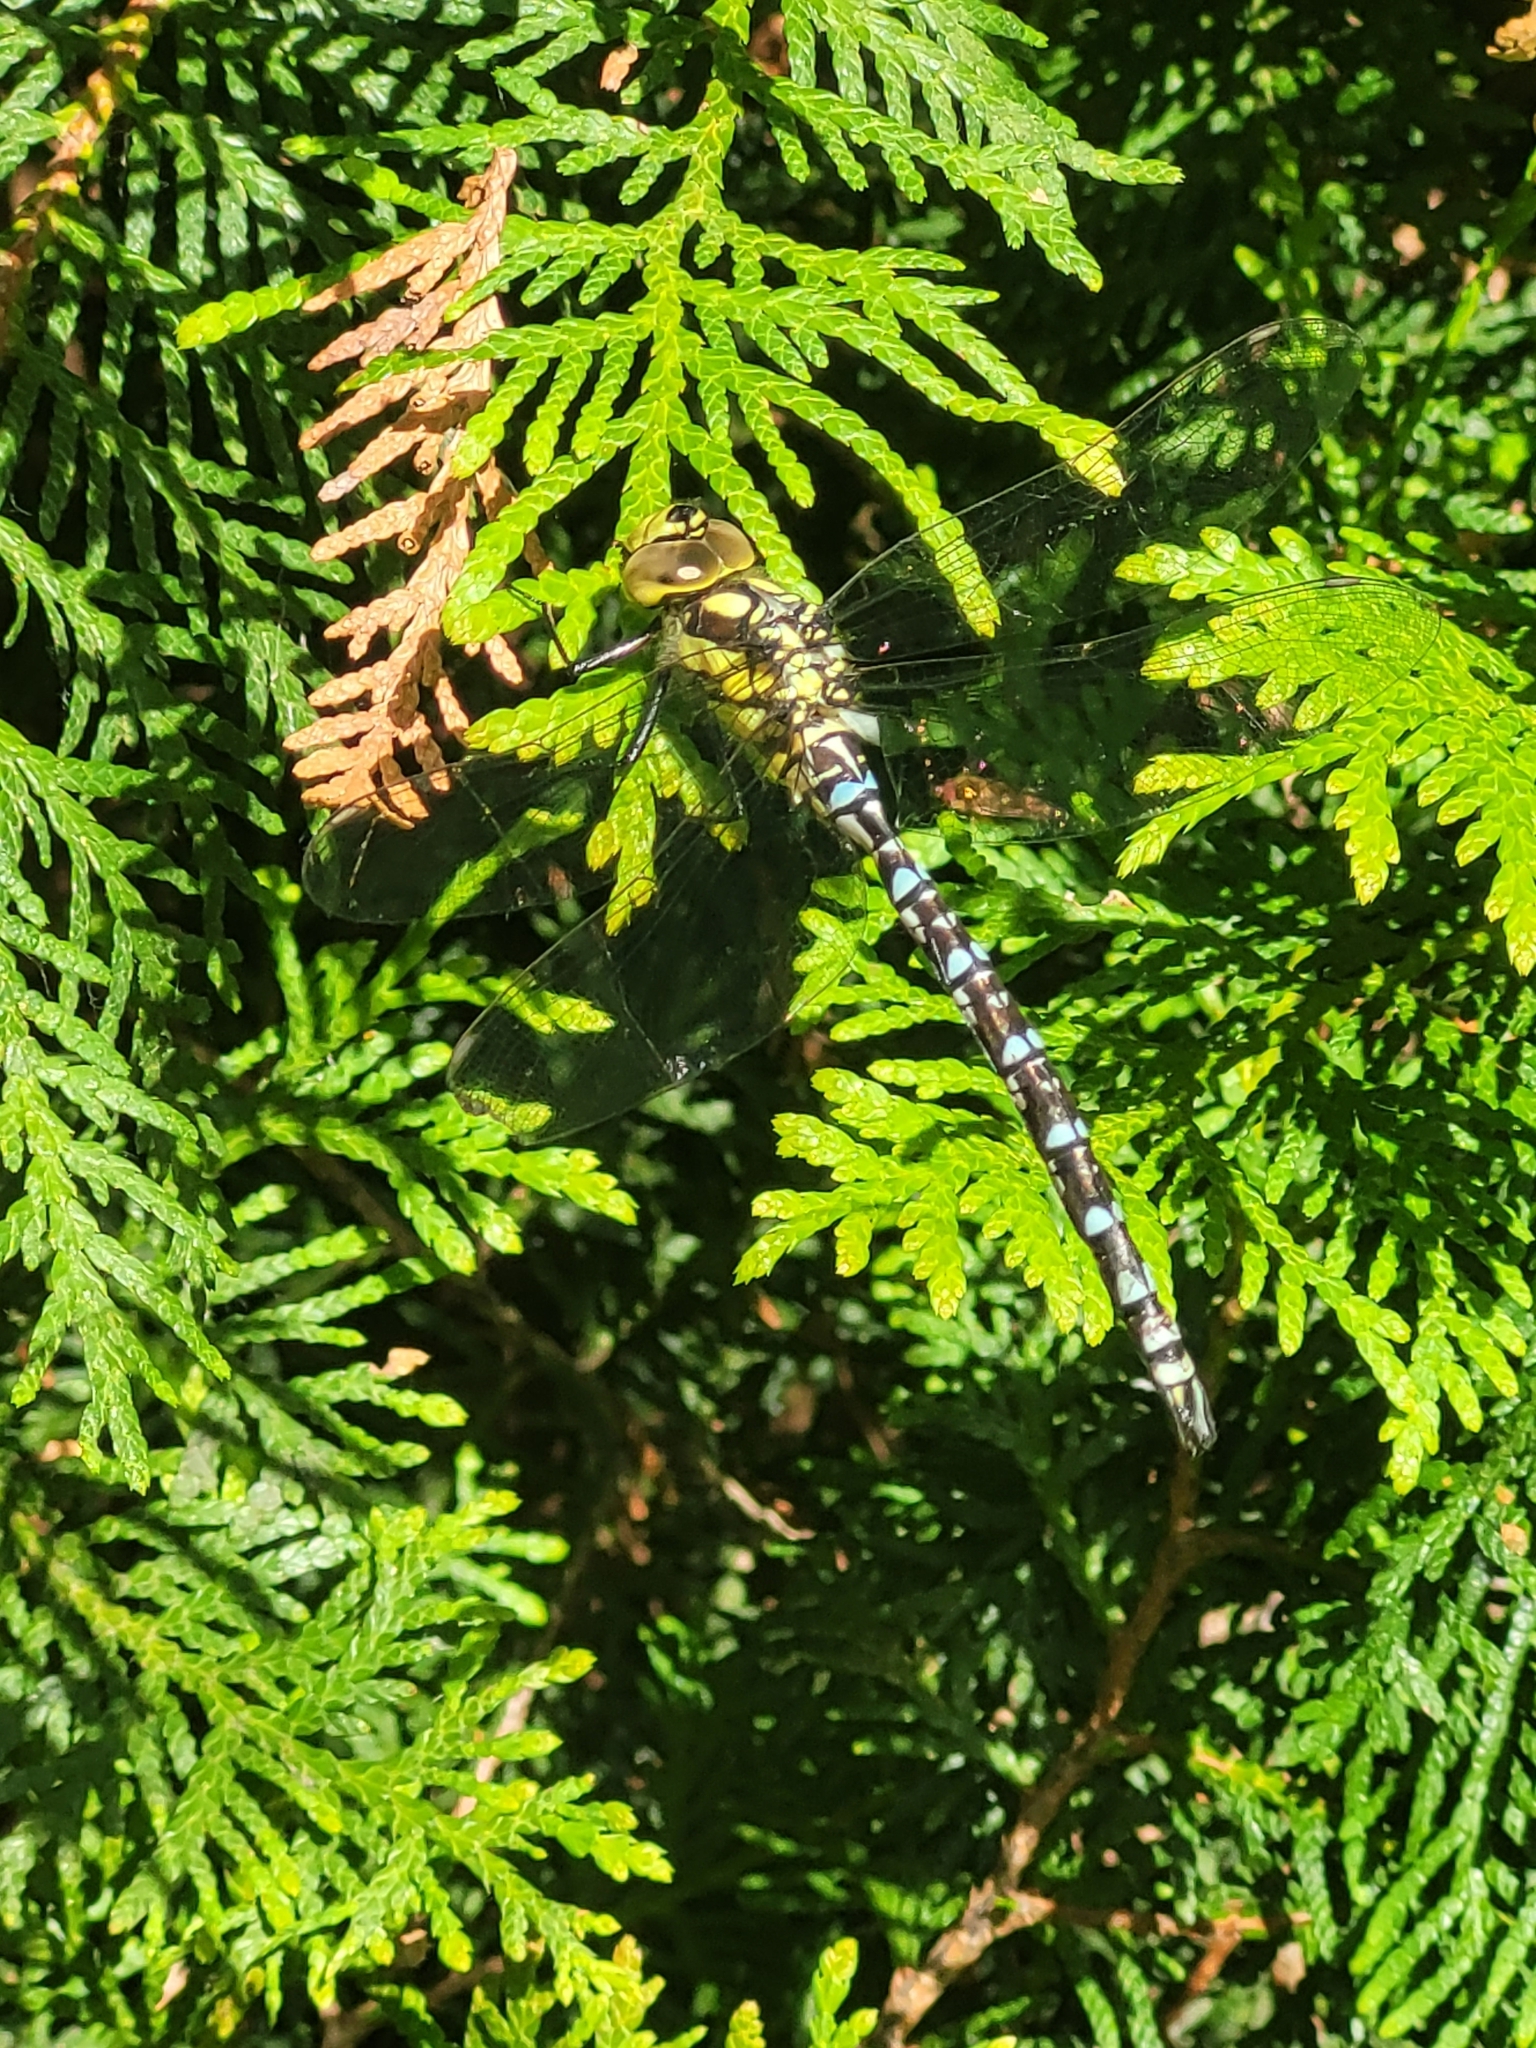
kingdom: Animalia
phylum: Arthropoda
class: Insecta
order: Odonata
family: Aeshnidae
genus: Aeshna
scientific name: Aeshna cyanea
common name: Southern hawker
